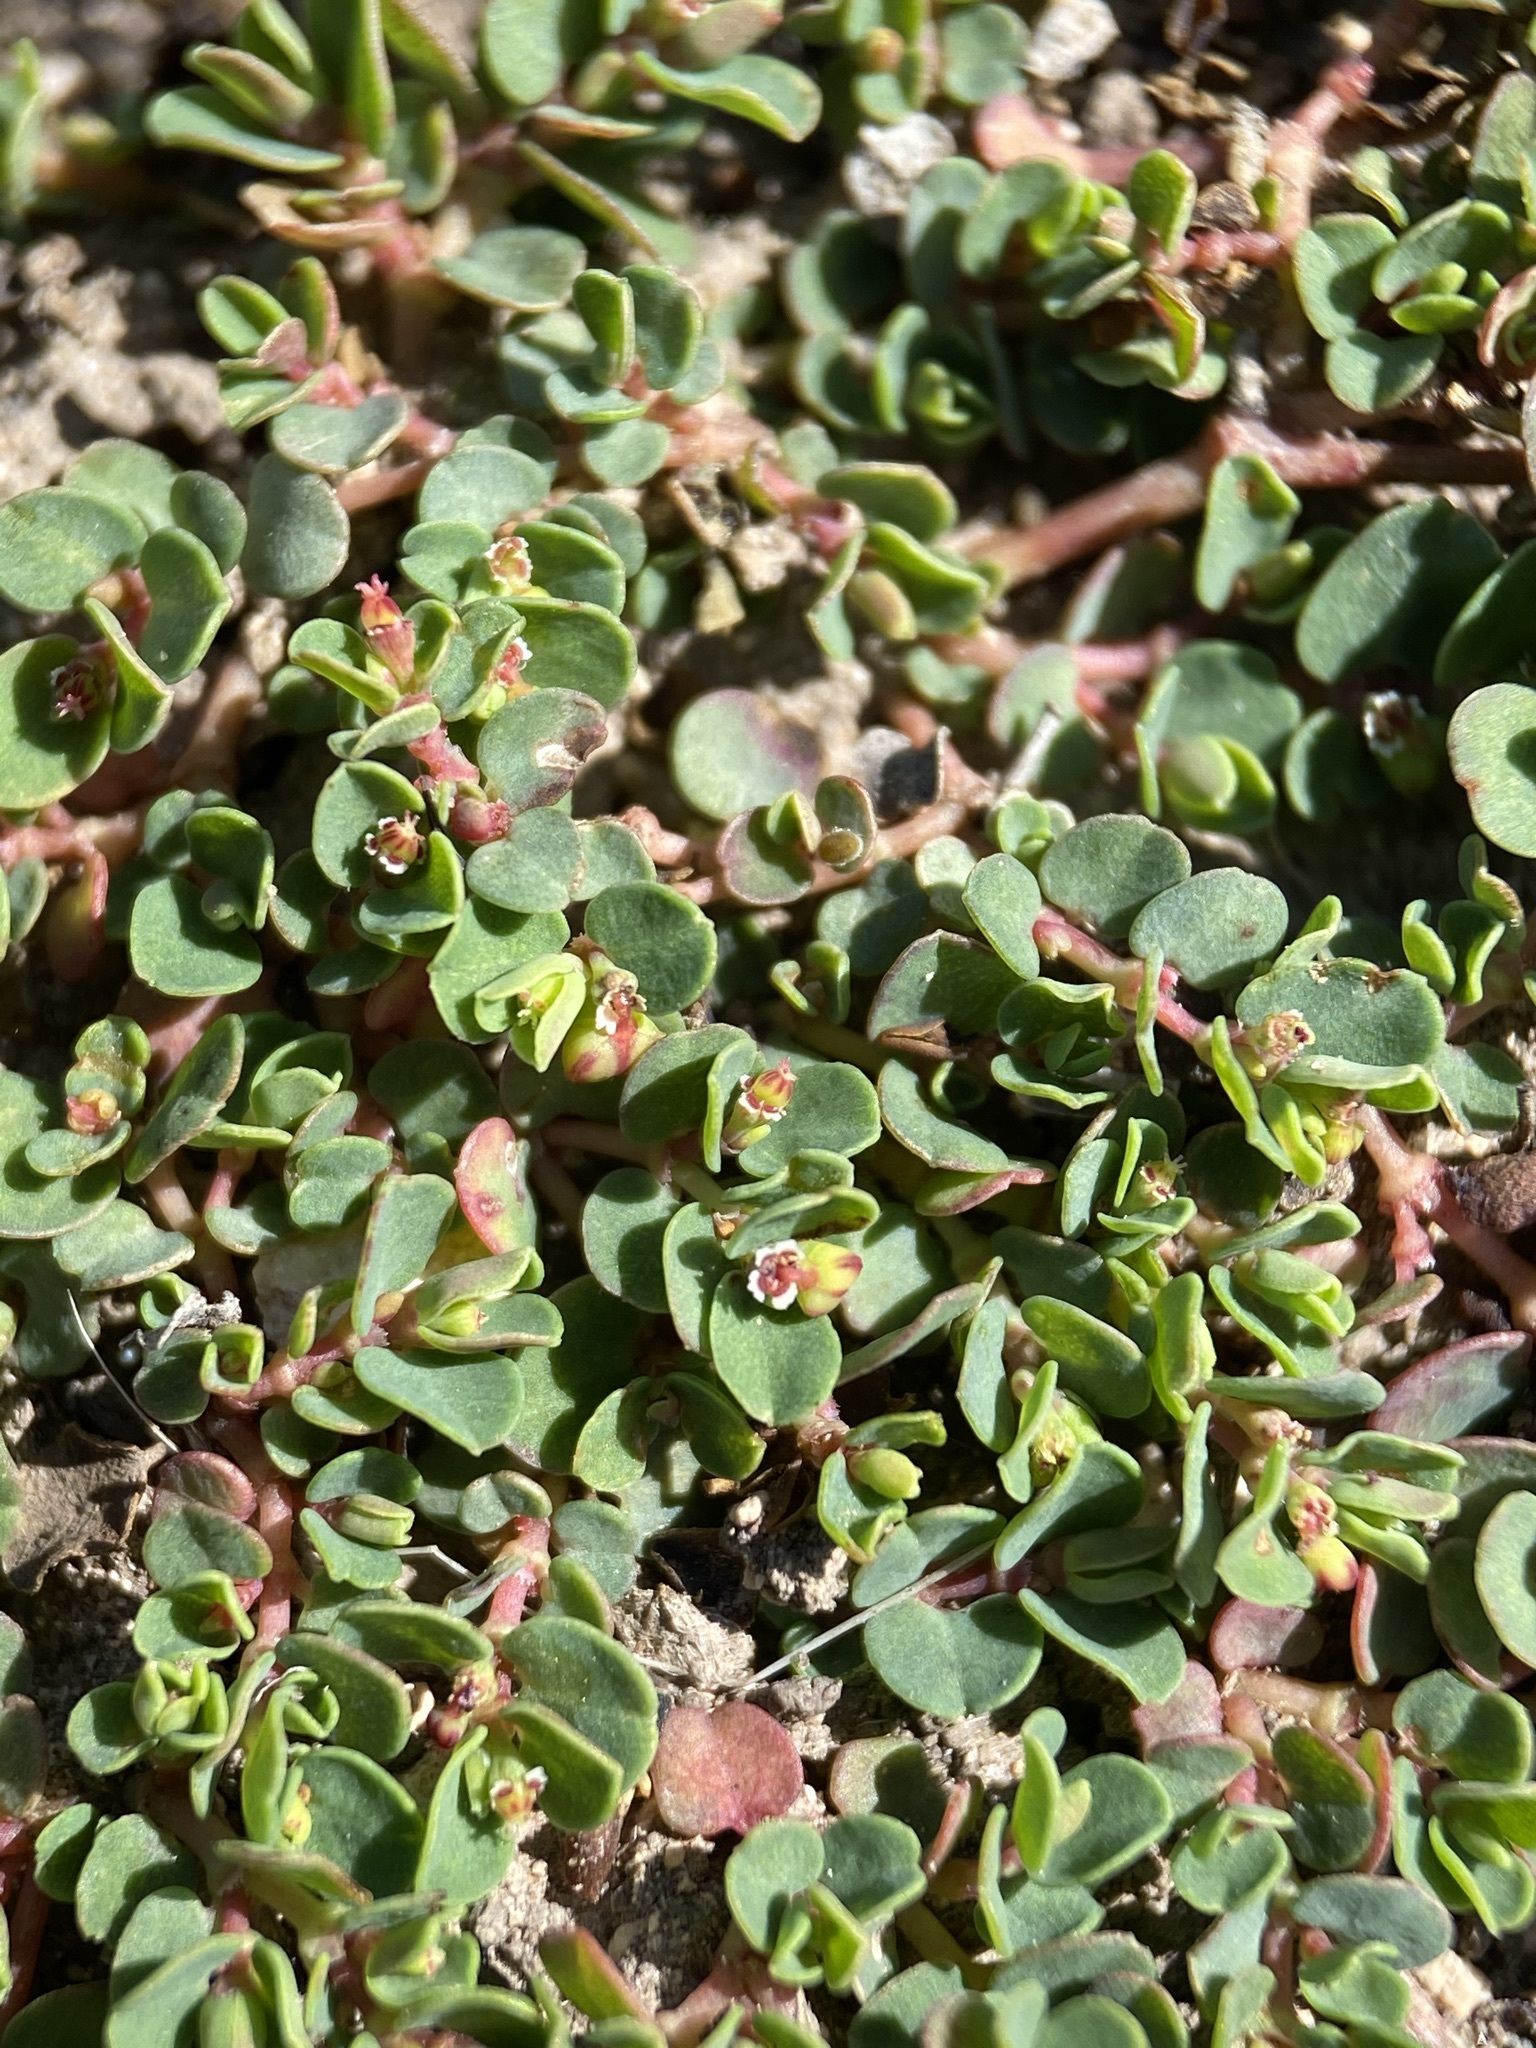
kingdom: Plantae
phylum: Tracheophyta
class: Magnoliopsida
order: Malpighiales
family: Euphorbiaceae
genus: Euphorbia
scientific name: Euphorbia serpens
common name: Matted sandmat
